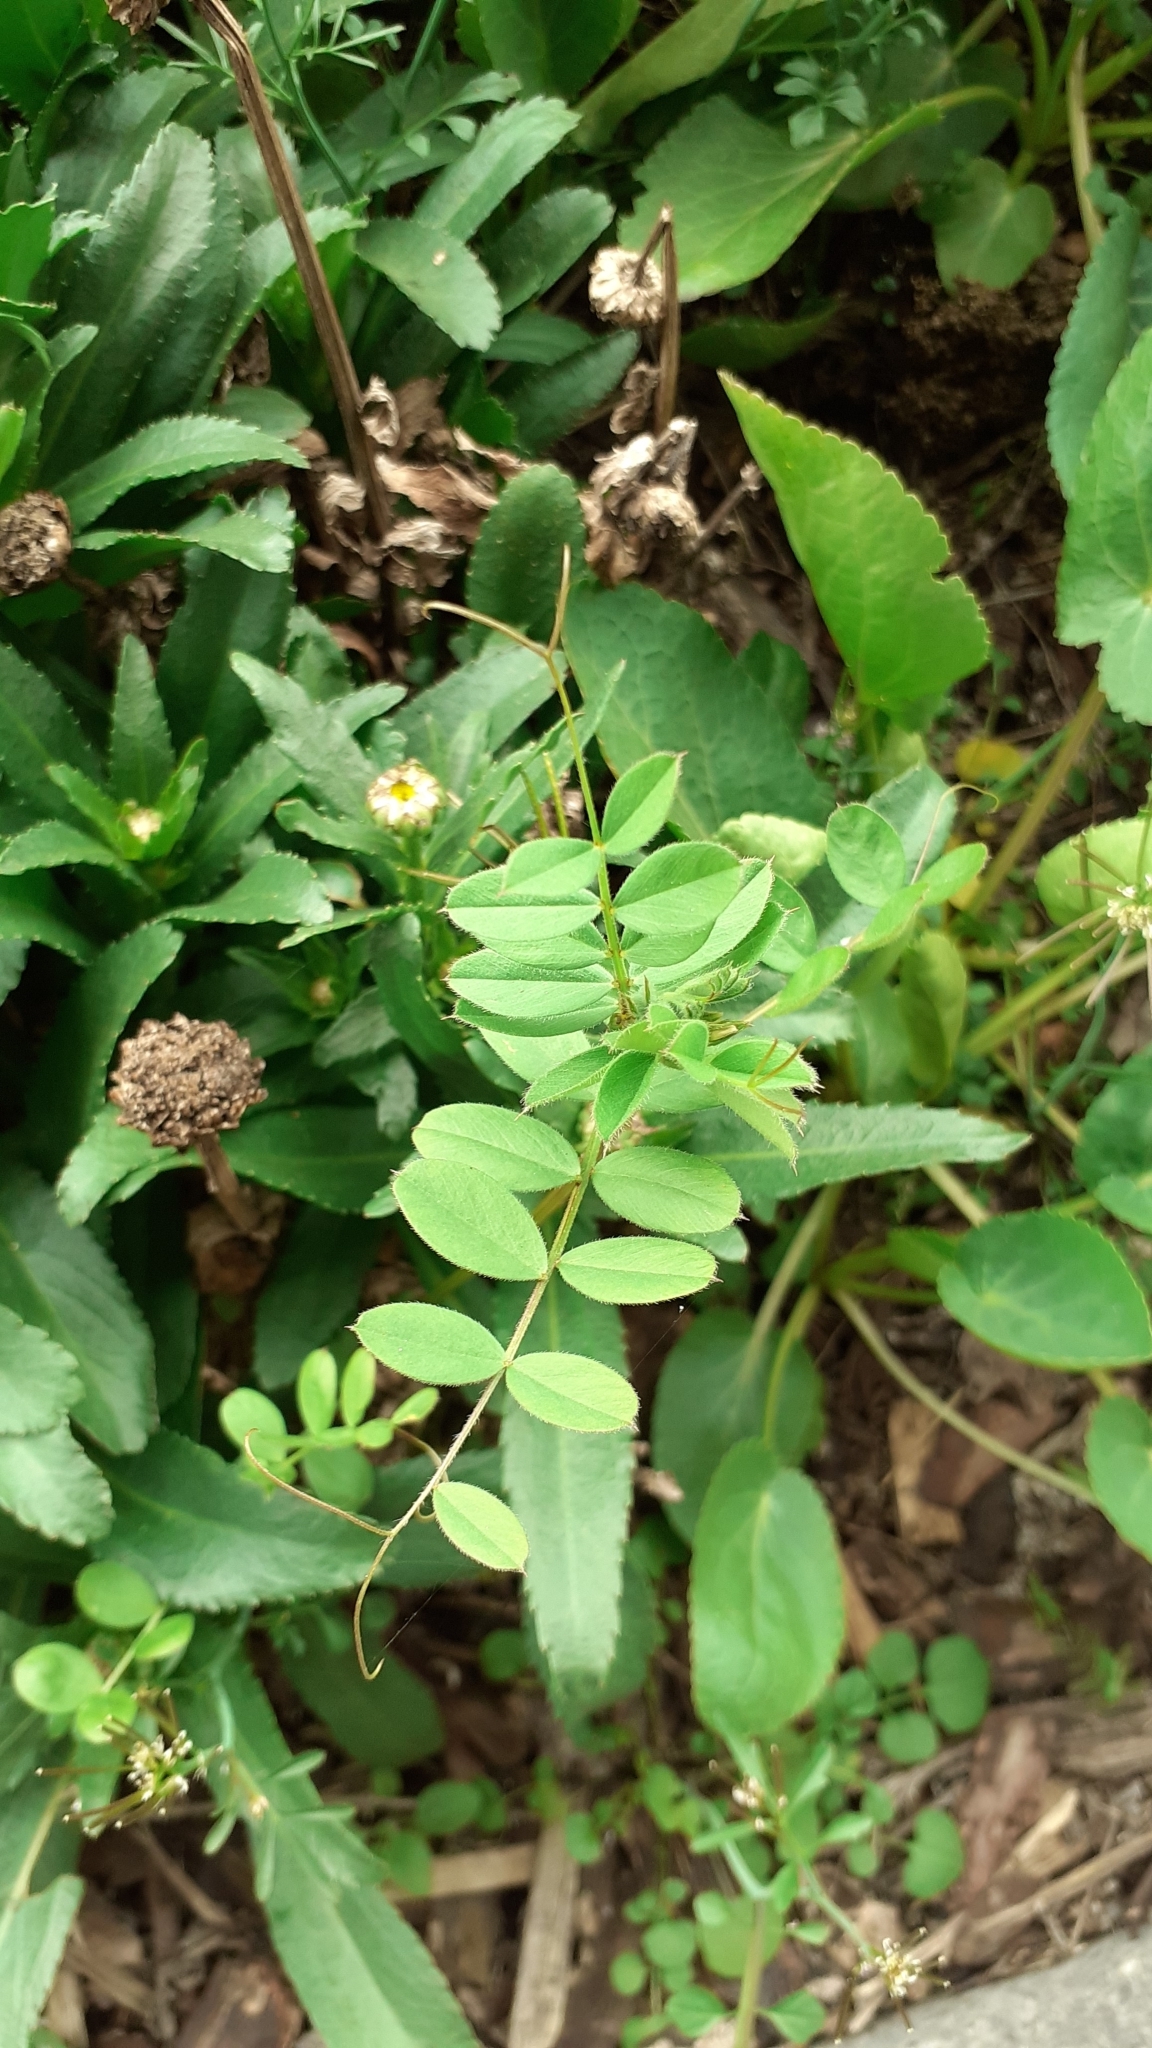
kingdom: Plantae
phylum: Tracheophyta
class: Magnoliopsida
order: Fabales
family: Fabaceae
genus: Vicia
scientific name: Vicia sativa
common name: Garden vetch
